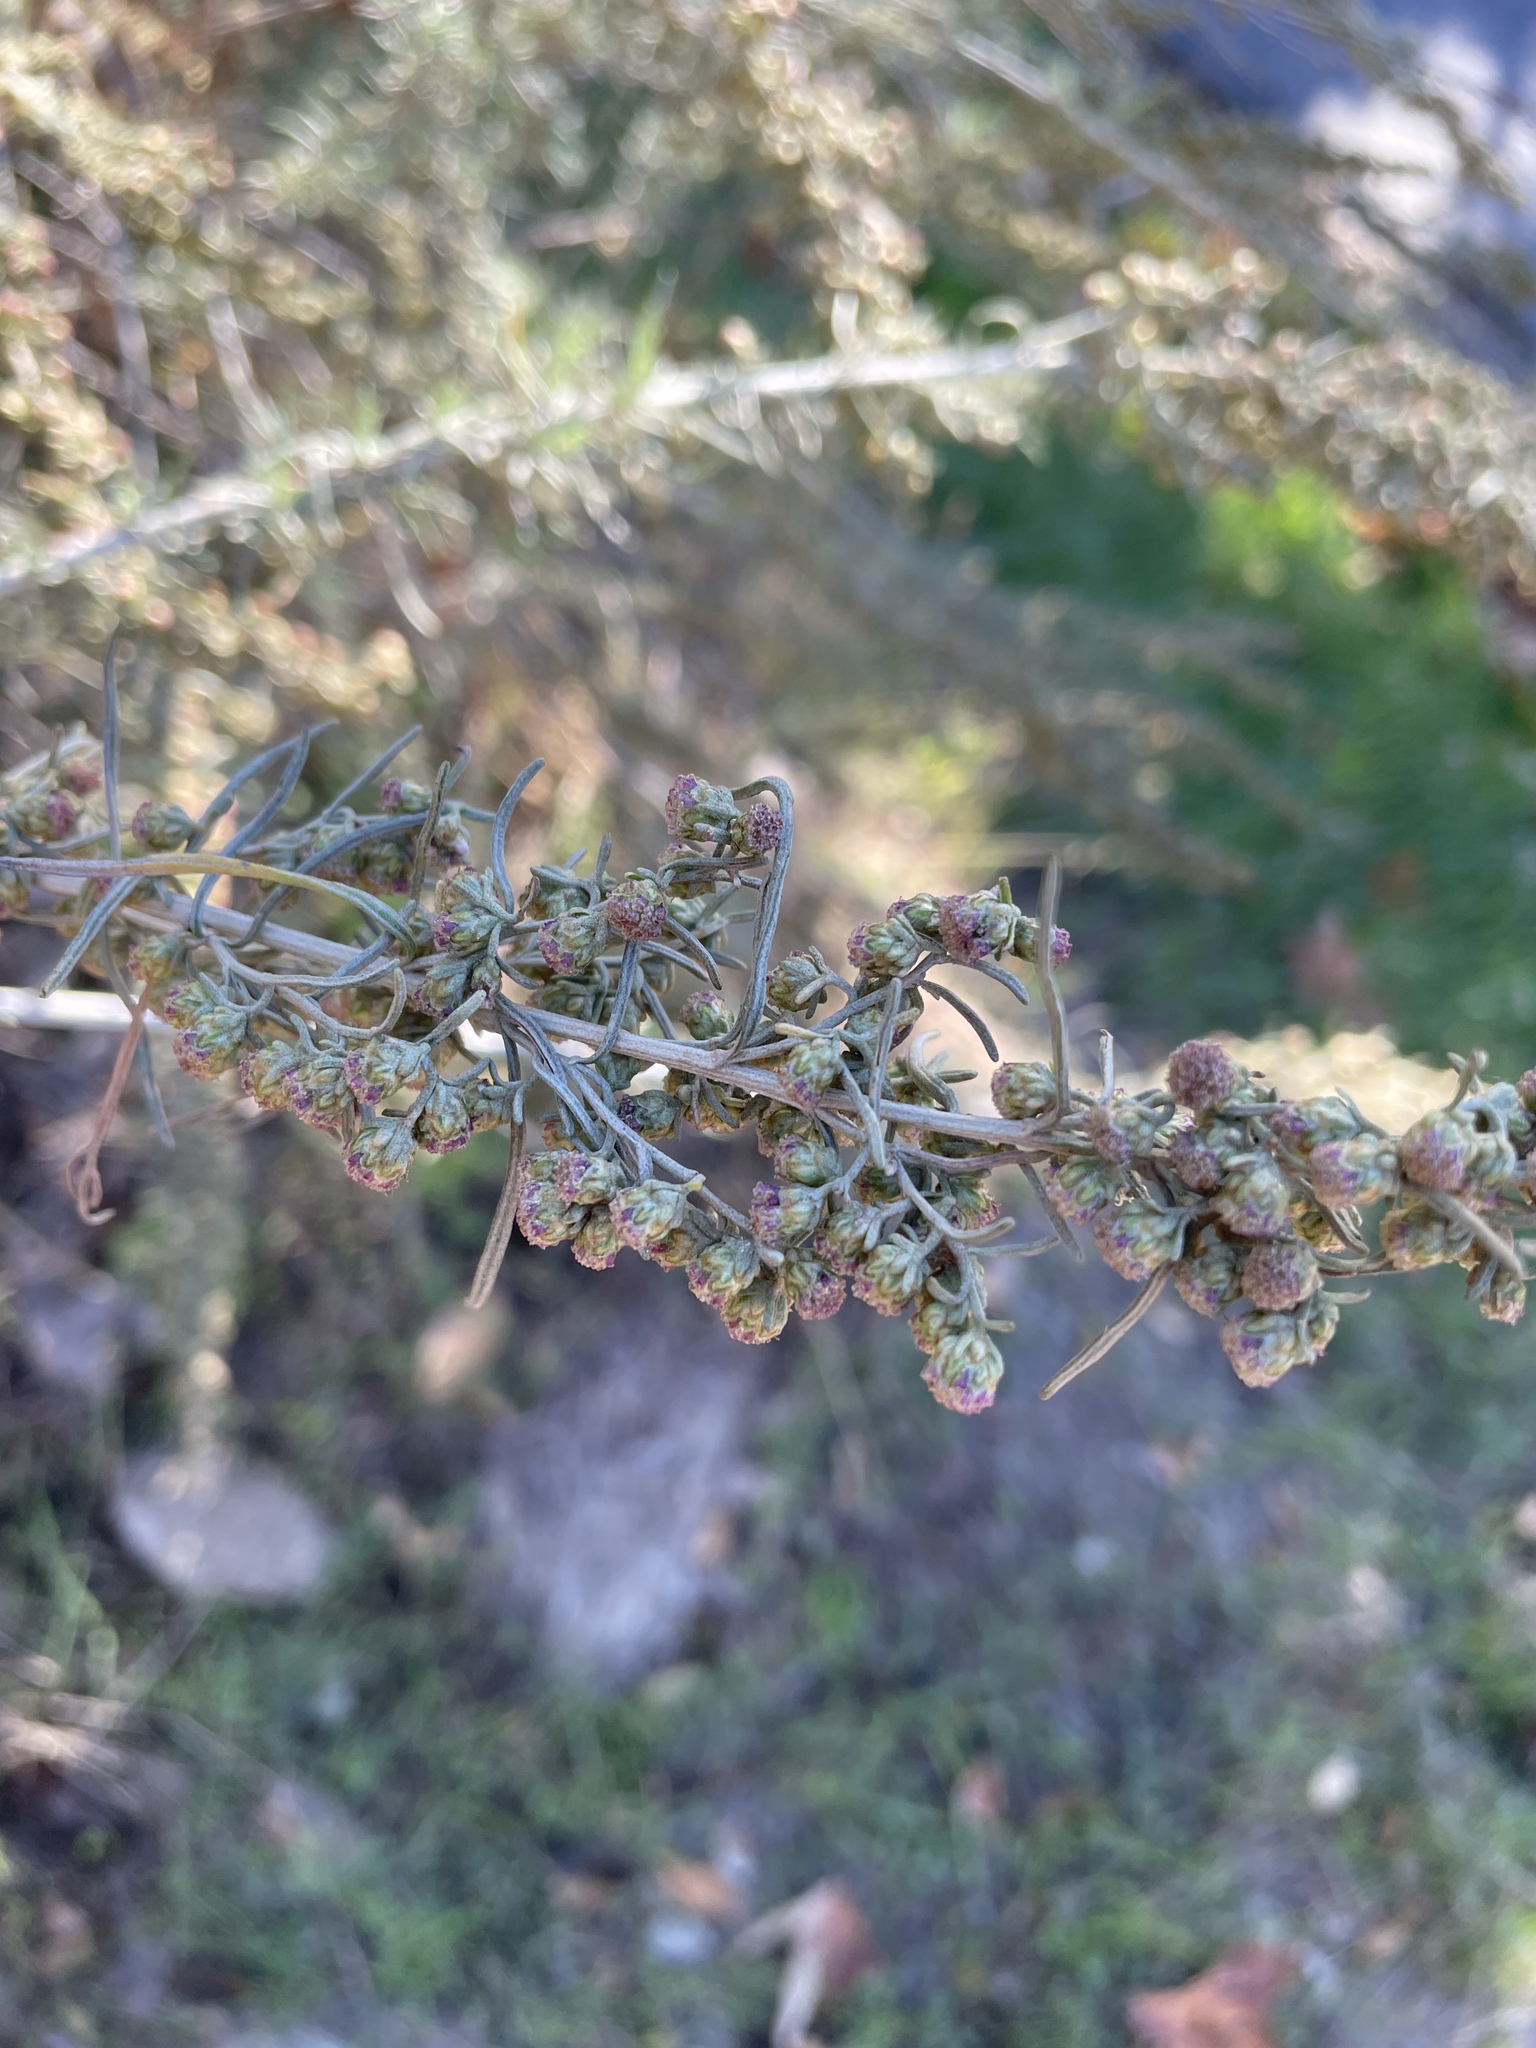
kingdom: Plantae
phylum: Tracheophyta
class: Magnoliopsida
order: Asterales
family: Asteraceae
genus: Artemisia
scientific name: Artemisia californica
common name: California sagebrush
